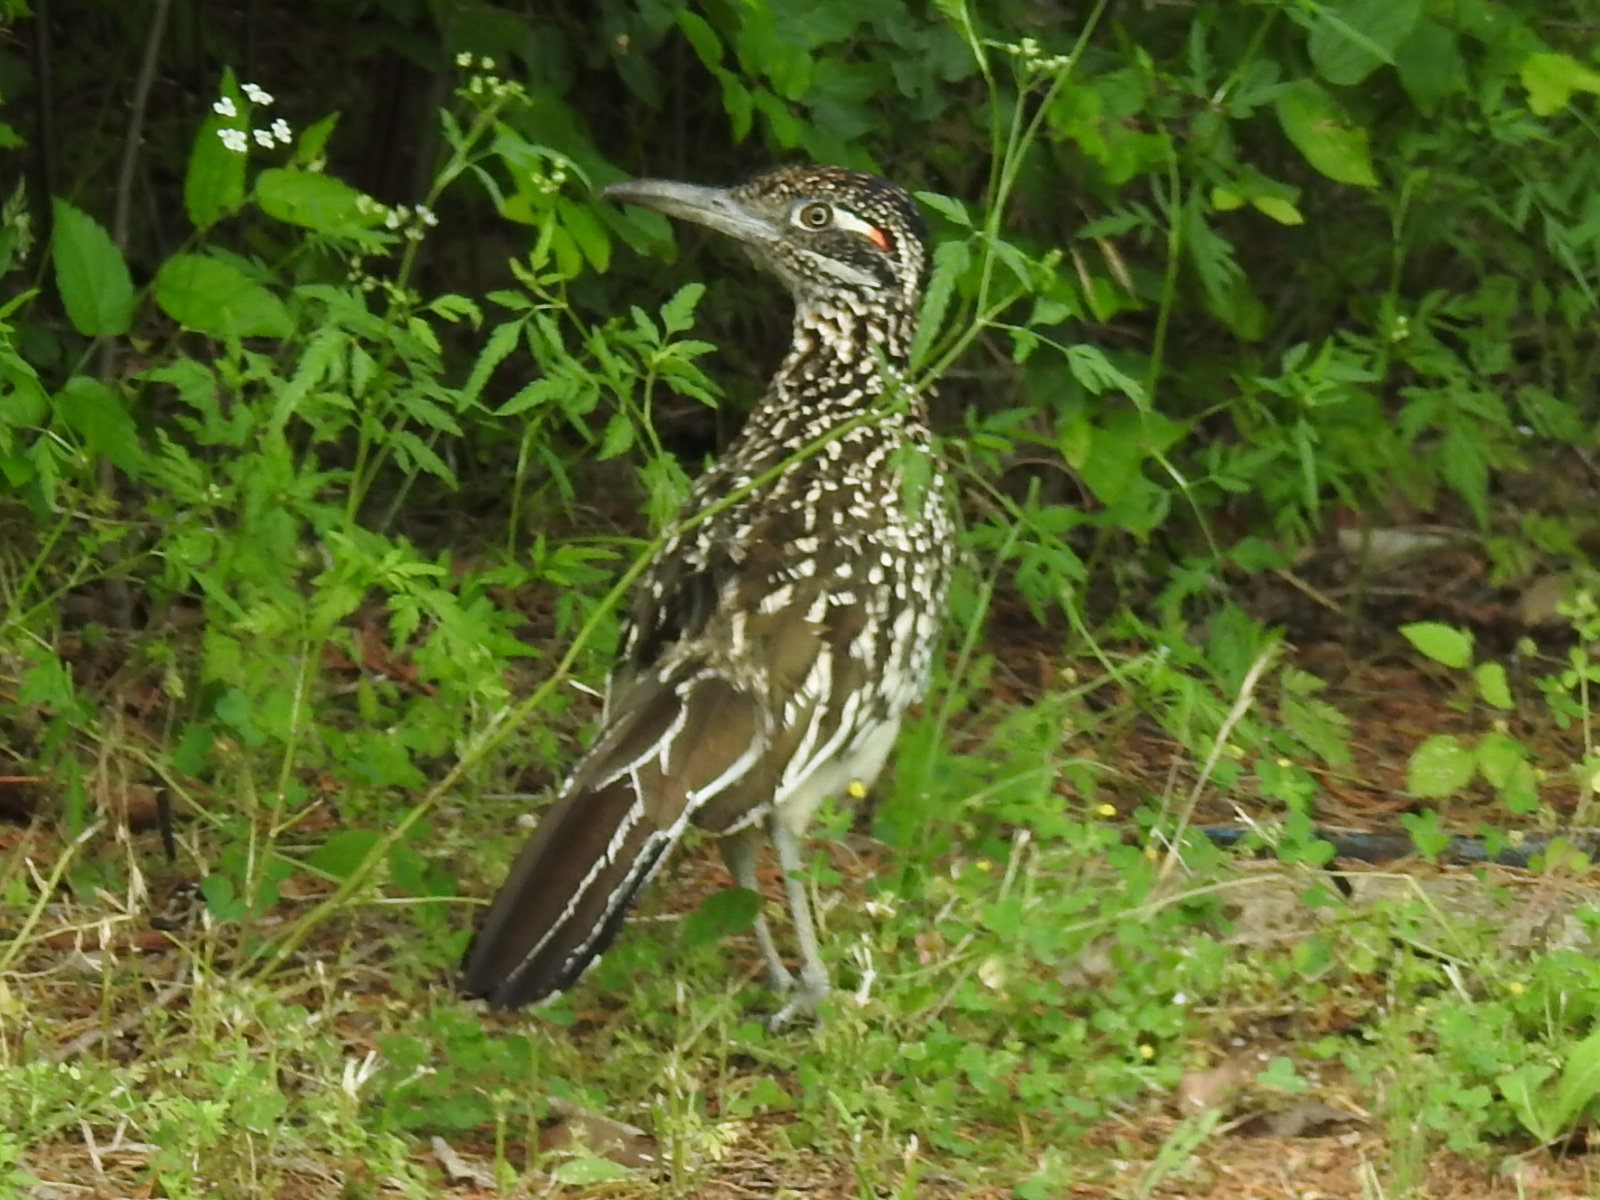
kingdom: Animalia
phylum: Chordata
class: Aves
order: Cuculiformes
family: Cuculidae
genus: Geococcyx
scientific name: Geococcyx californianus
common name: Greater roadrunner
